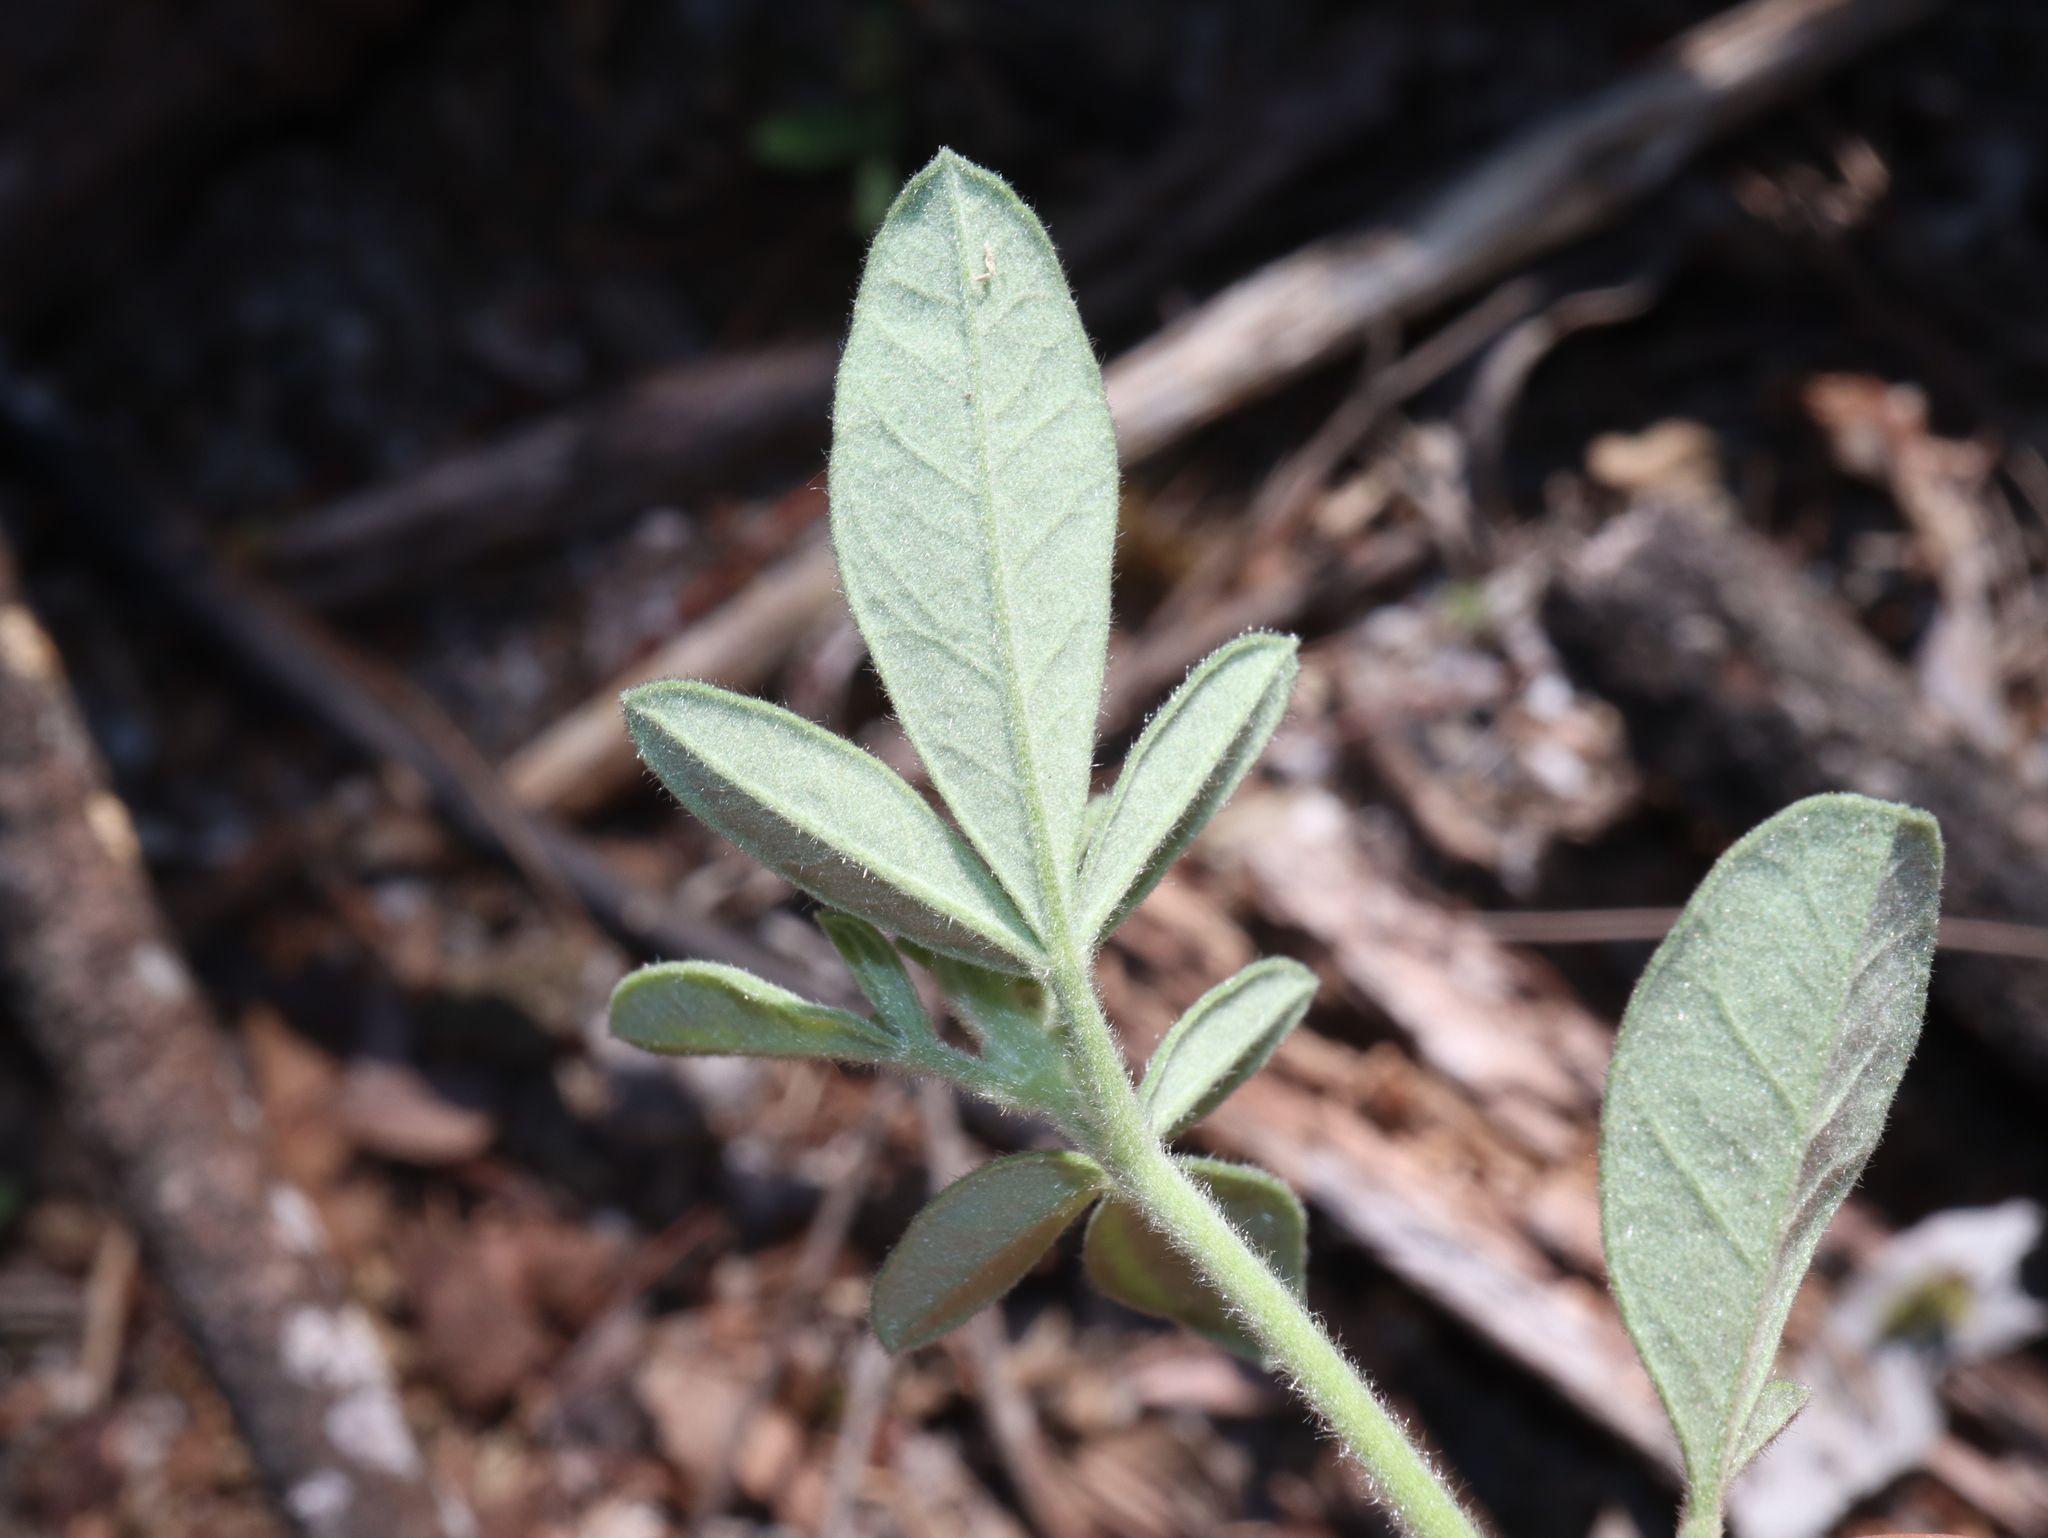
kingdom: Plantae
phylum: Tracheophyta
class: Magnoliopsida
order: Sapindales
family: Rutaceae
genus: Zieria
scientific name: Zieria cytisoides
